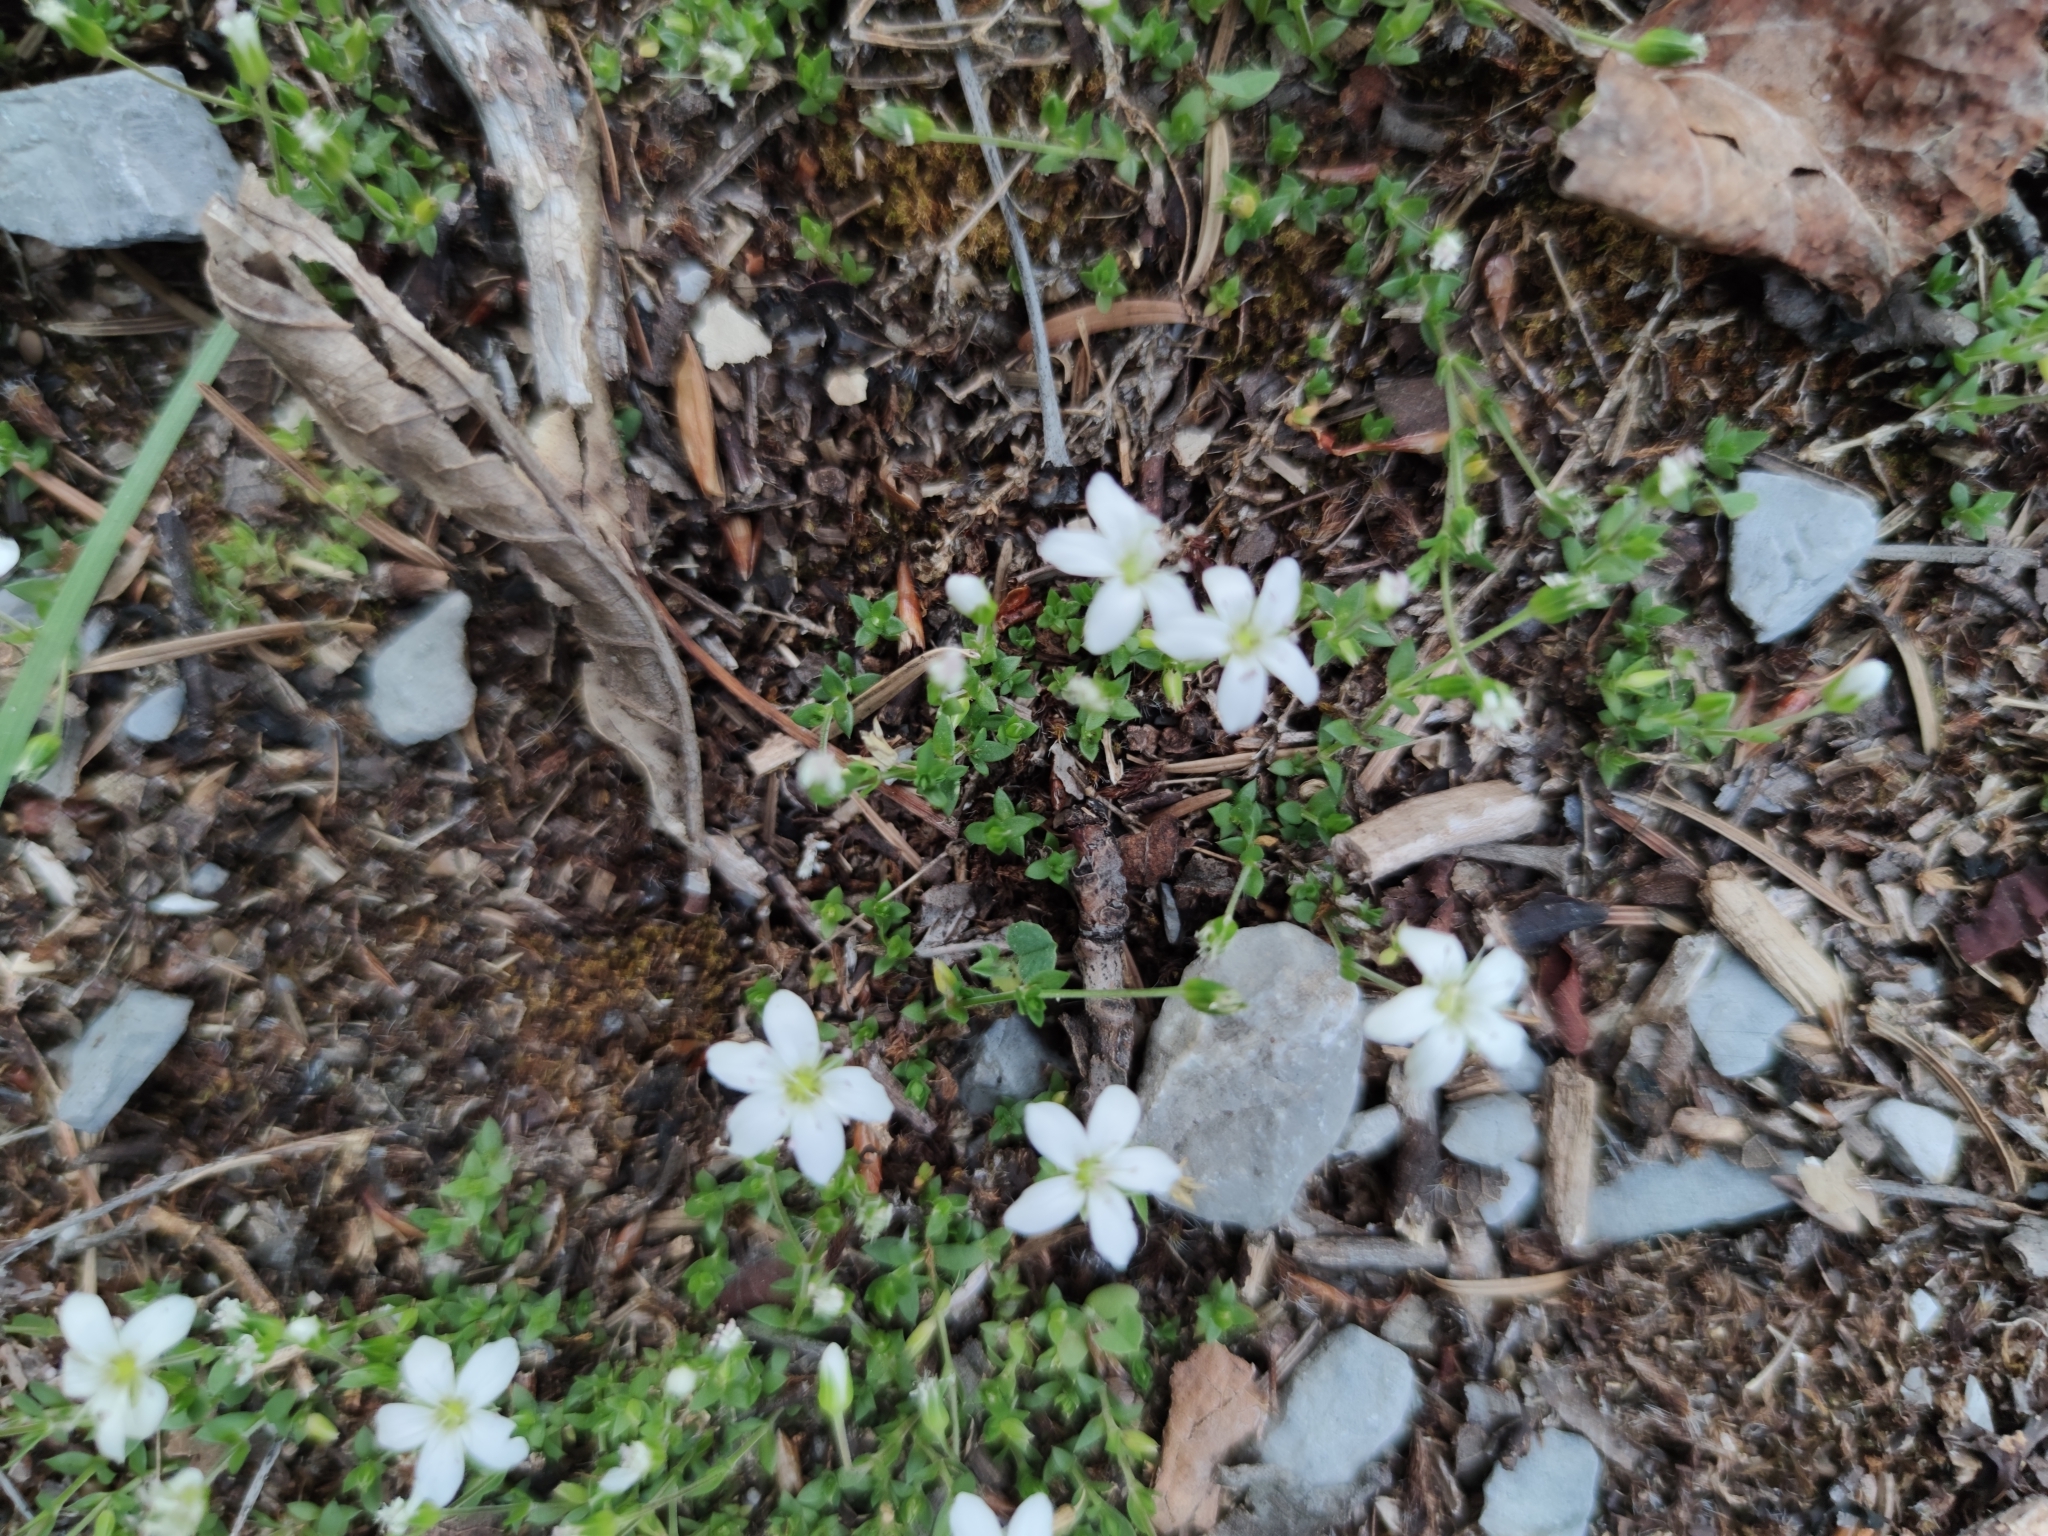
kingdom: Plantae
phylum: Tracheophyta
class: Magnoliopsida
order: Caryophyllales
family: Caryophyllaceae
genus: Arenaria
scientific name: Arenaria lanuginosa
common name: Spread sandwort
